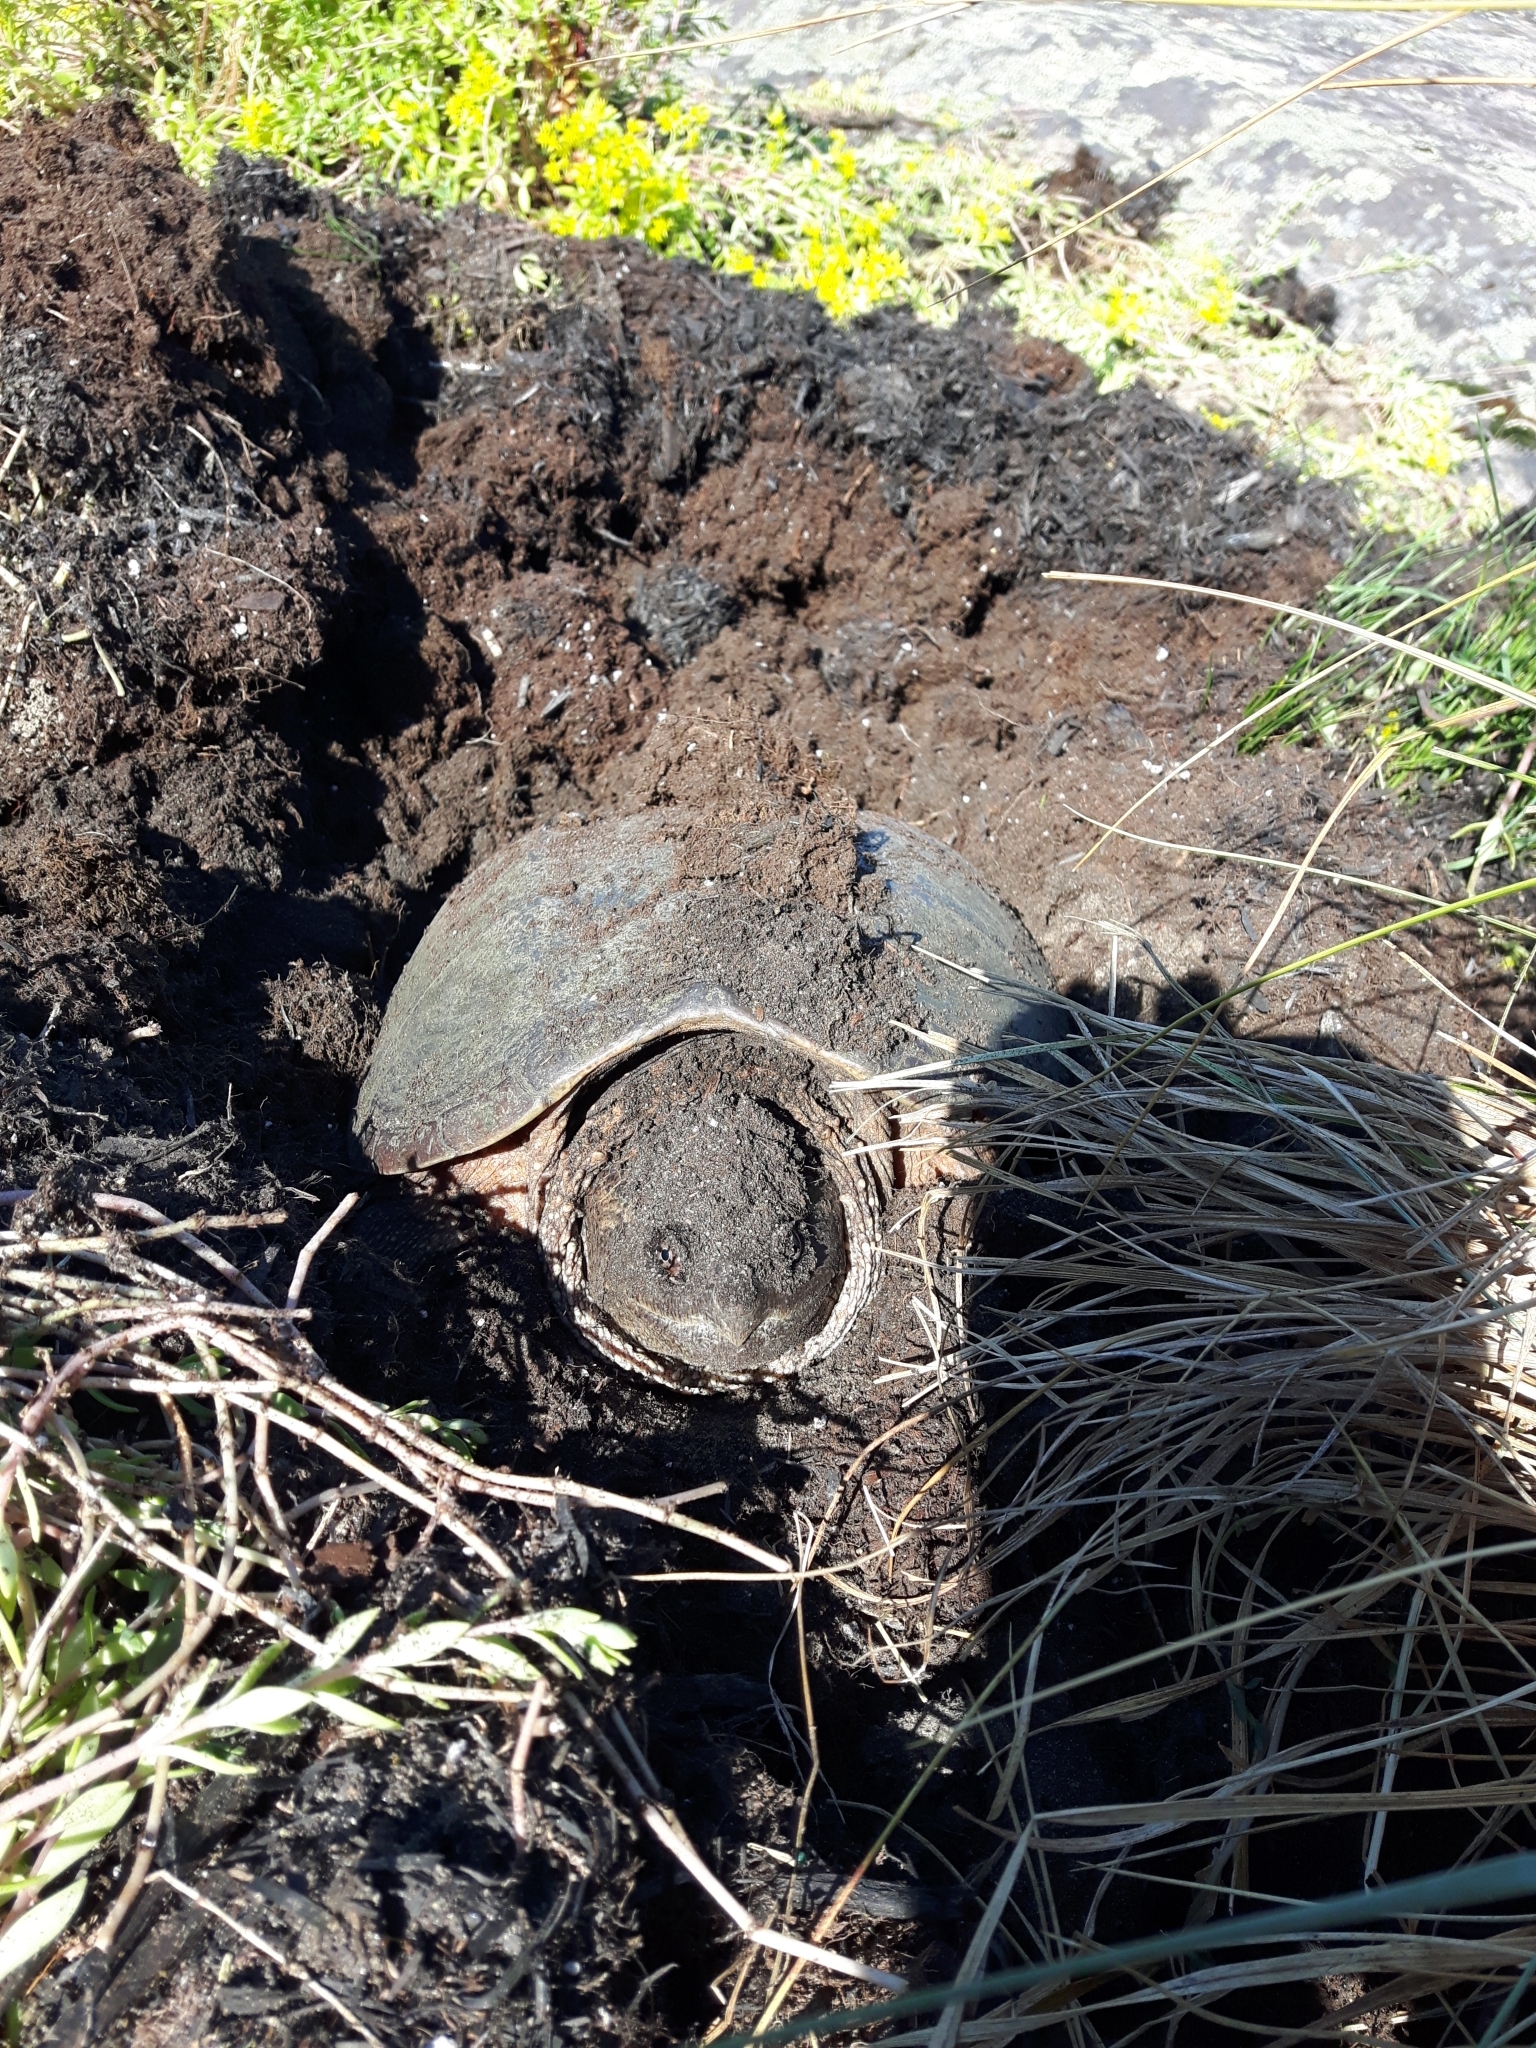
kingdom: Animalia
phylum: Chordata
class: Testudines
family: Chelydridae
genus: Chelydra
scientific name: Chelydra serpentina
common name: Common snapping turtle
